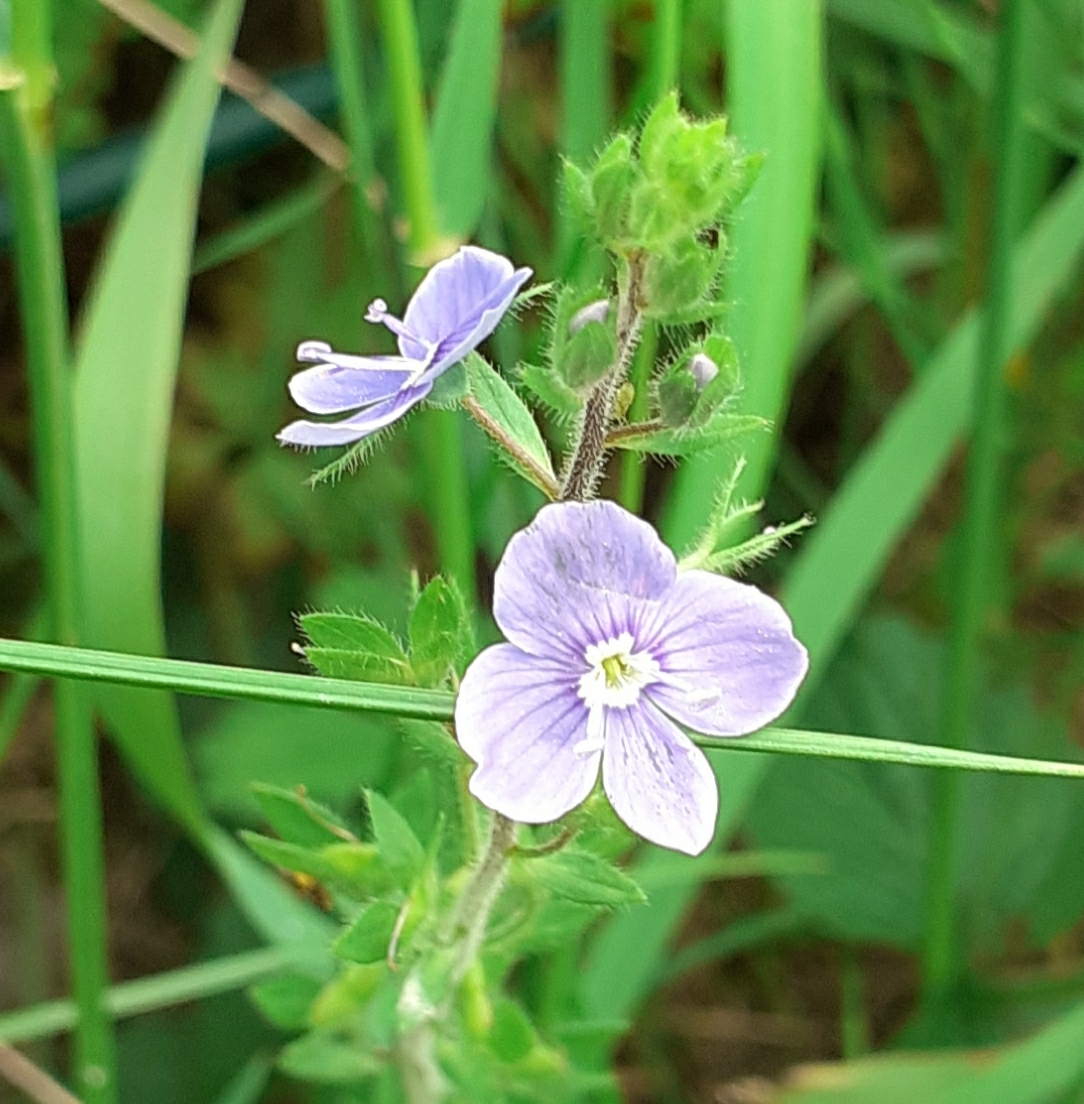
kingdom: Plantae
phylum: Tracheophyta
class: Magnoliopsida
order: Lamiales
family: Plantaginaceae
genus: Veronica
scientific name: Veronica chamaedrys
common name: Germander speedwell
